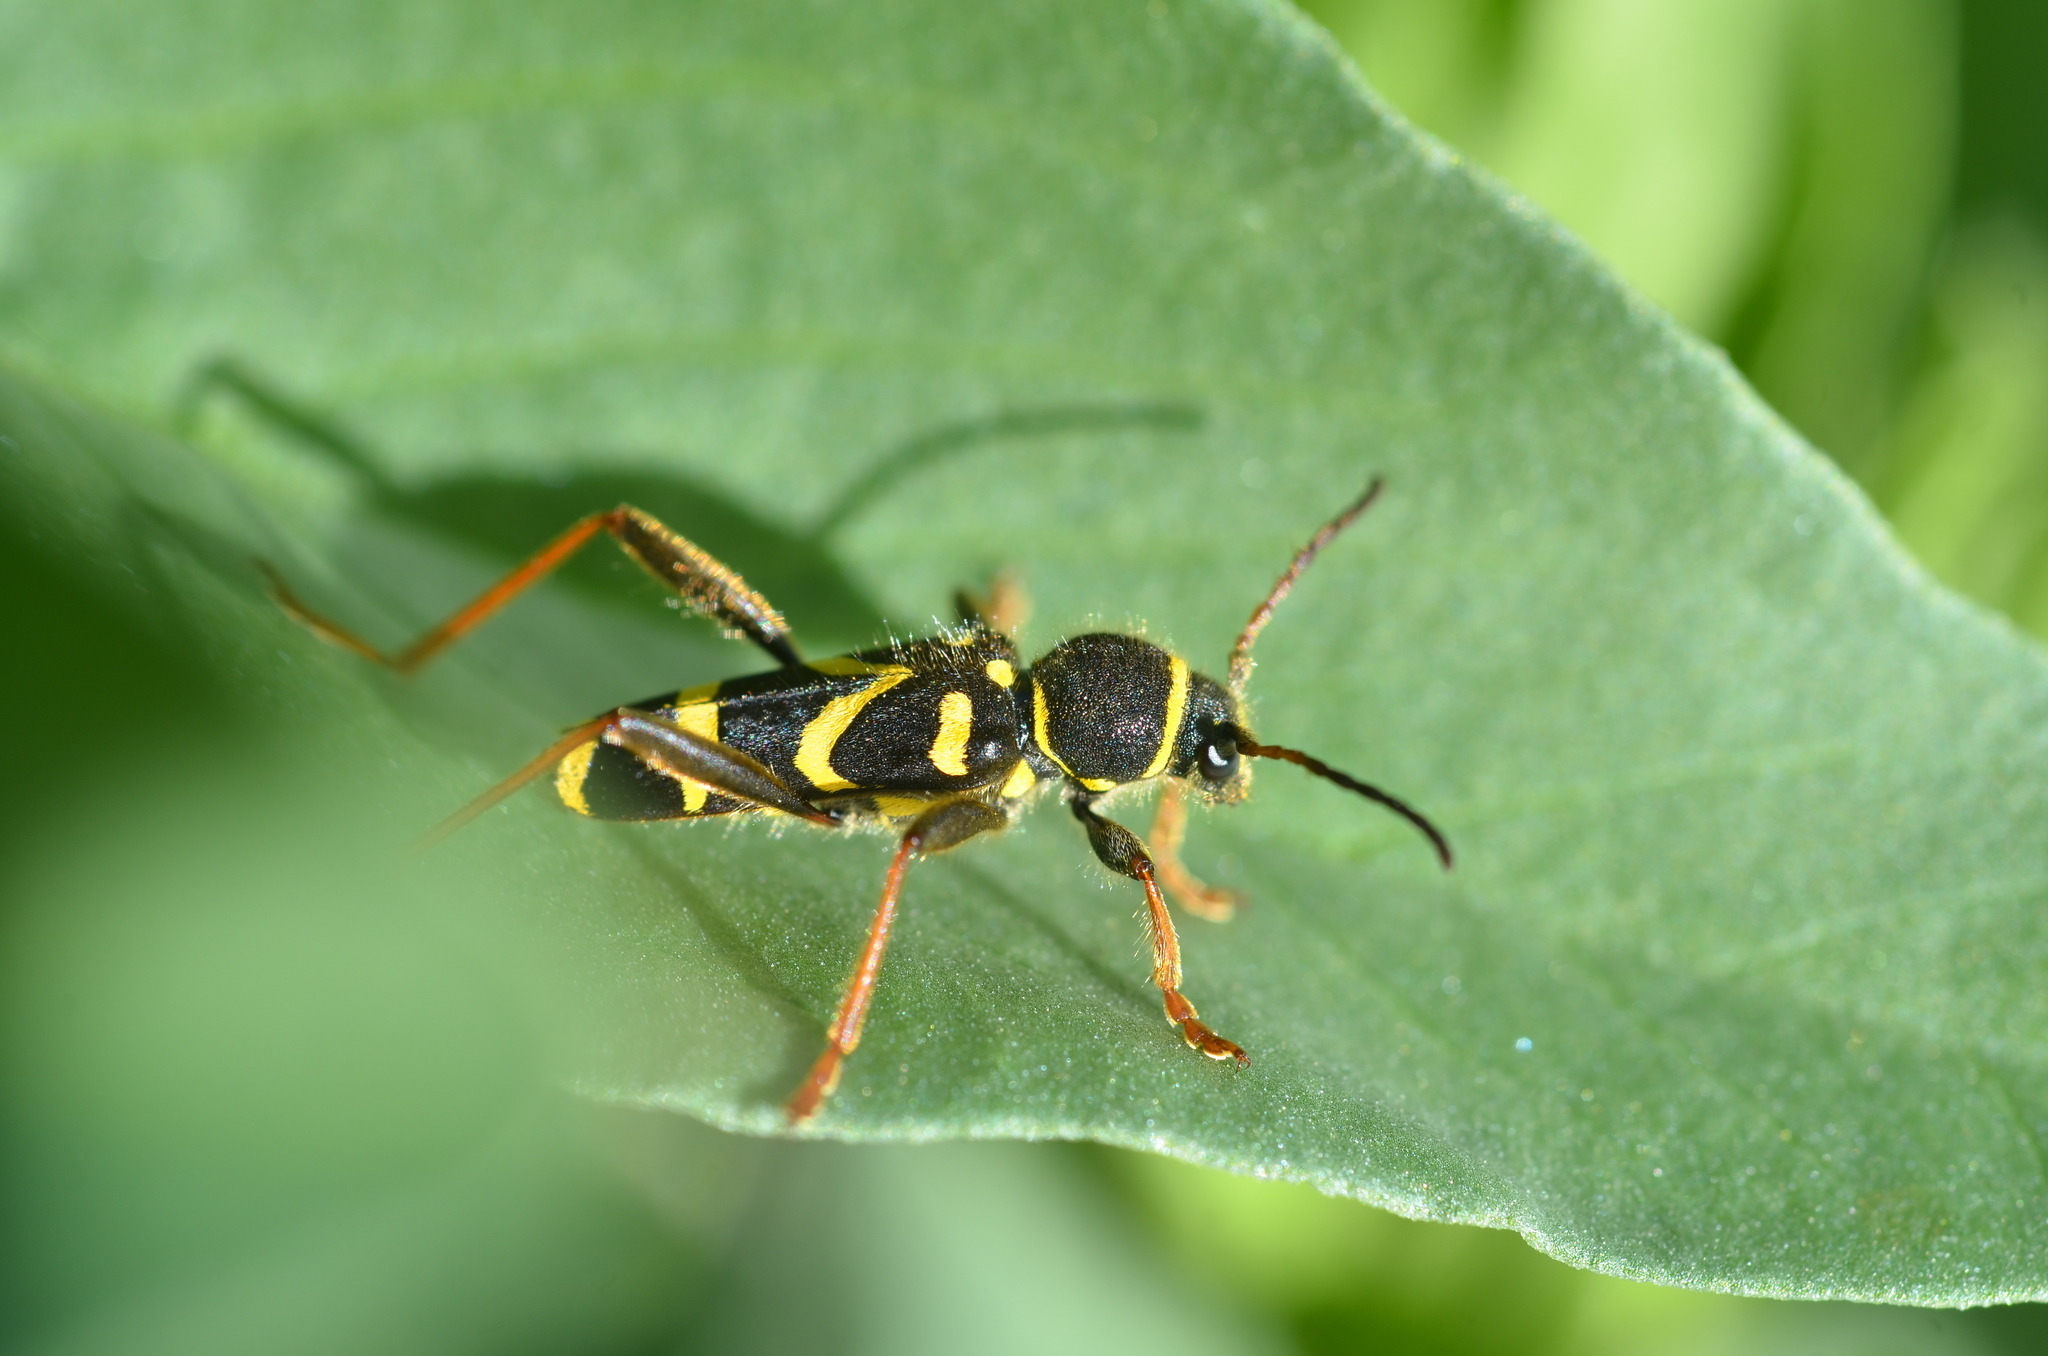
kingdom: Animalia
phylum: Arthropoda
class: Insecta
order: Coleoptera
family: Cerambycidae
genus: Clytus
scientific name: Clytus arietis
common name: Wasp beetle
